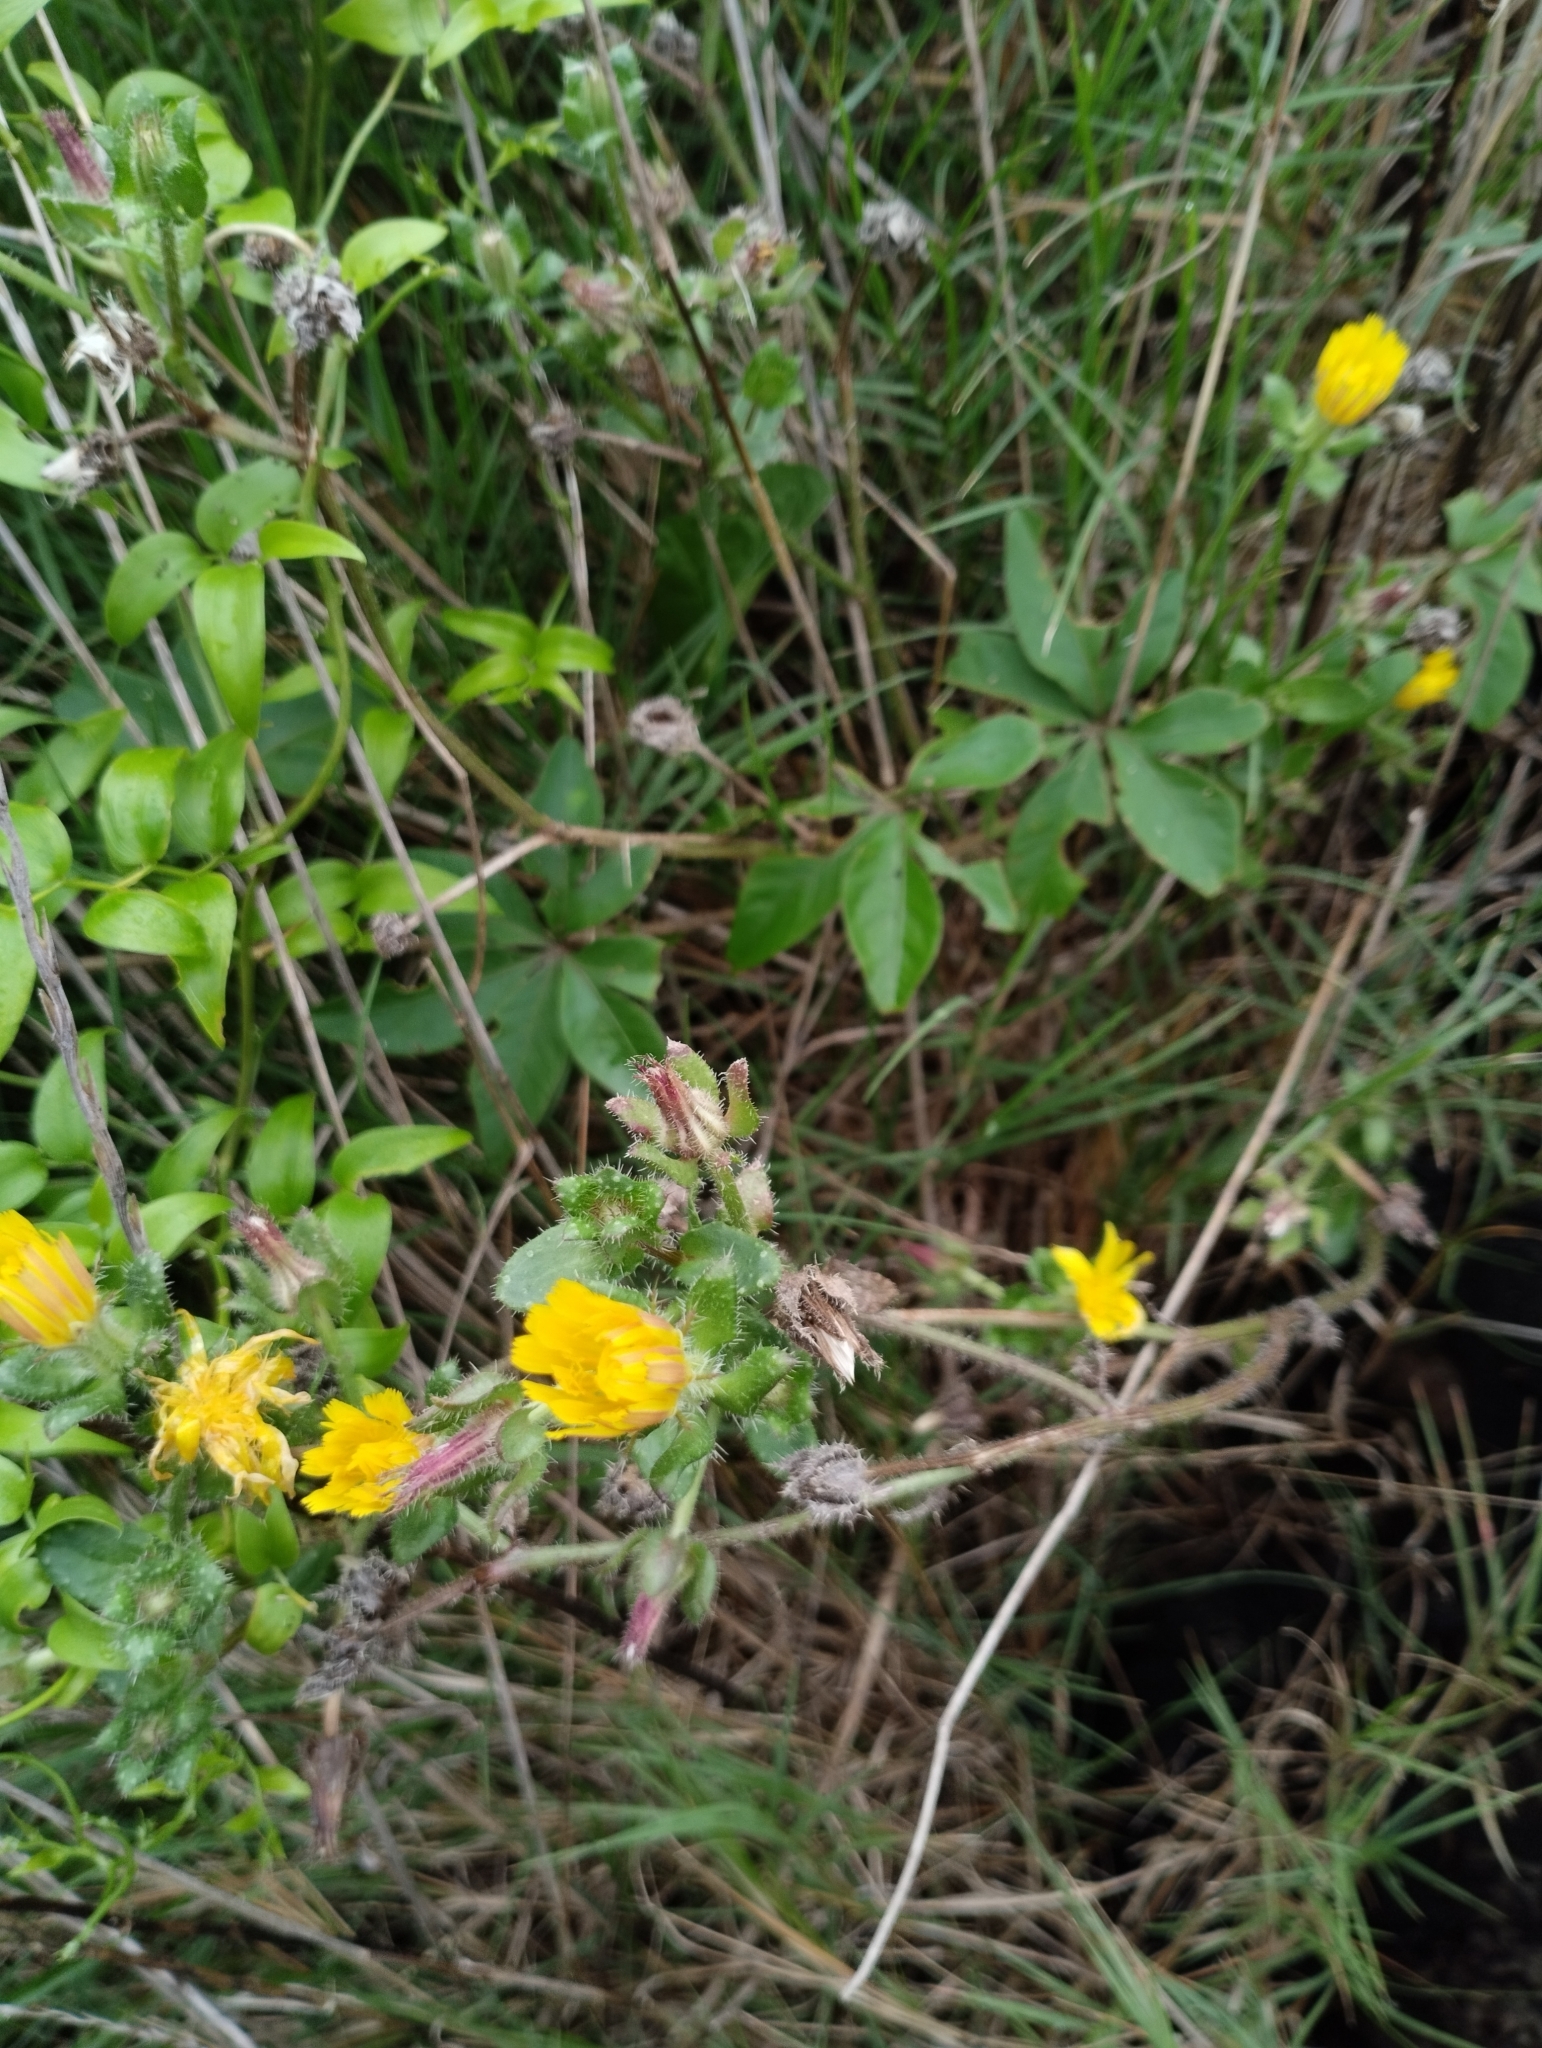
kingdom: Plantae
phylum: Tracheophyta
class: Magnoliopsida
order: Asterales
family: Asteraceae
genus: Helminthotheca
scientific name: Helminthotheca echioides
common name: Ox-tongue
